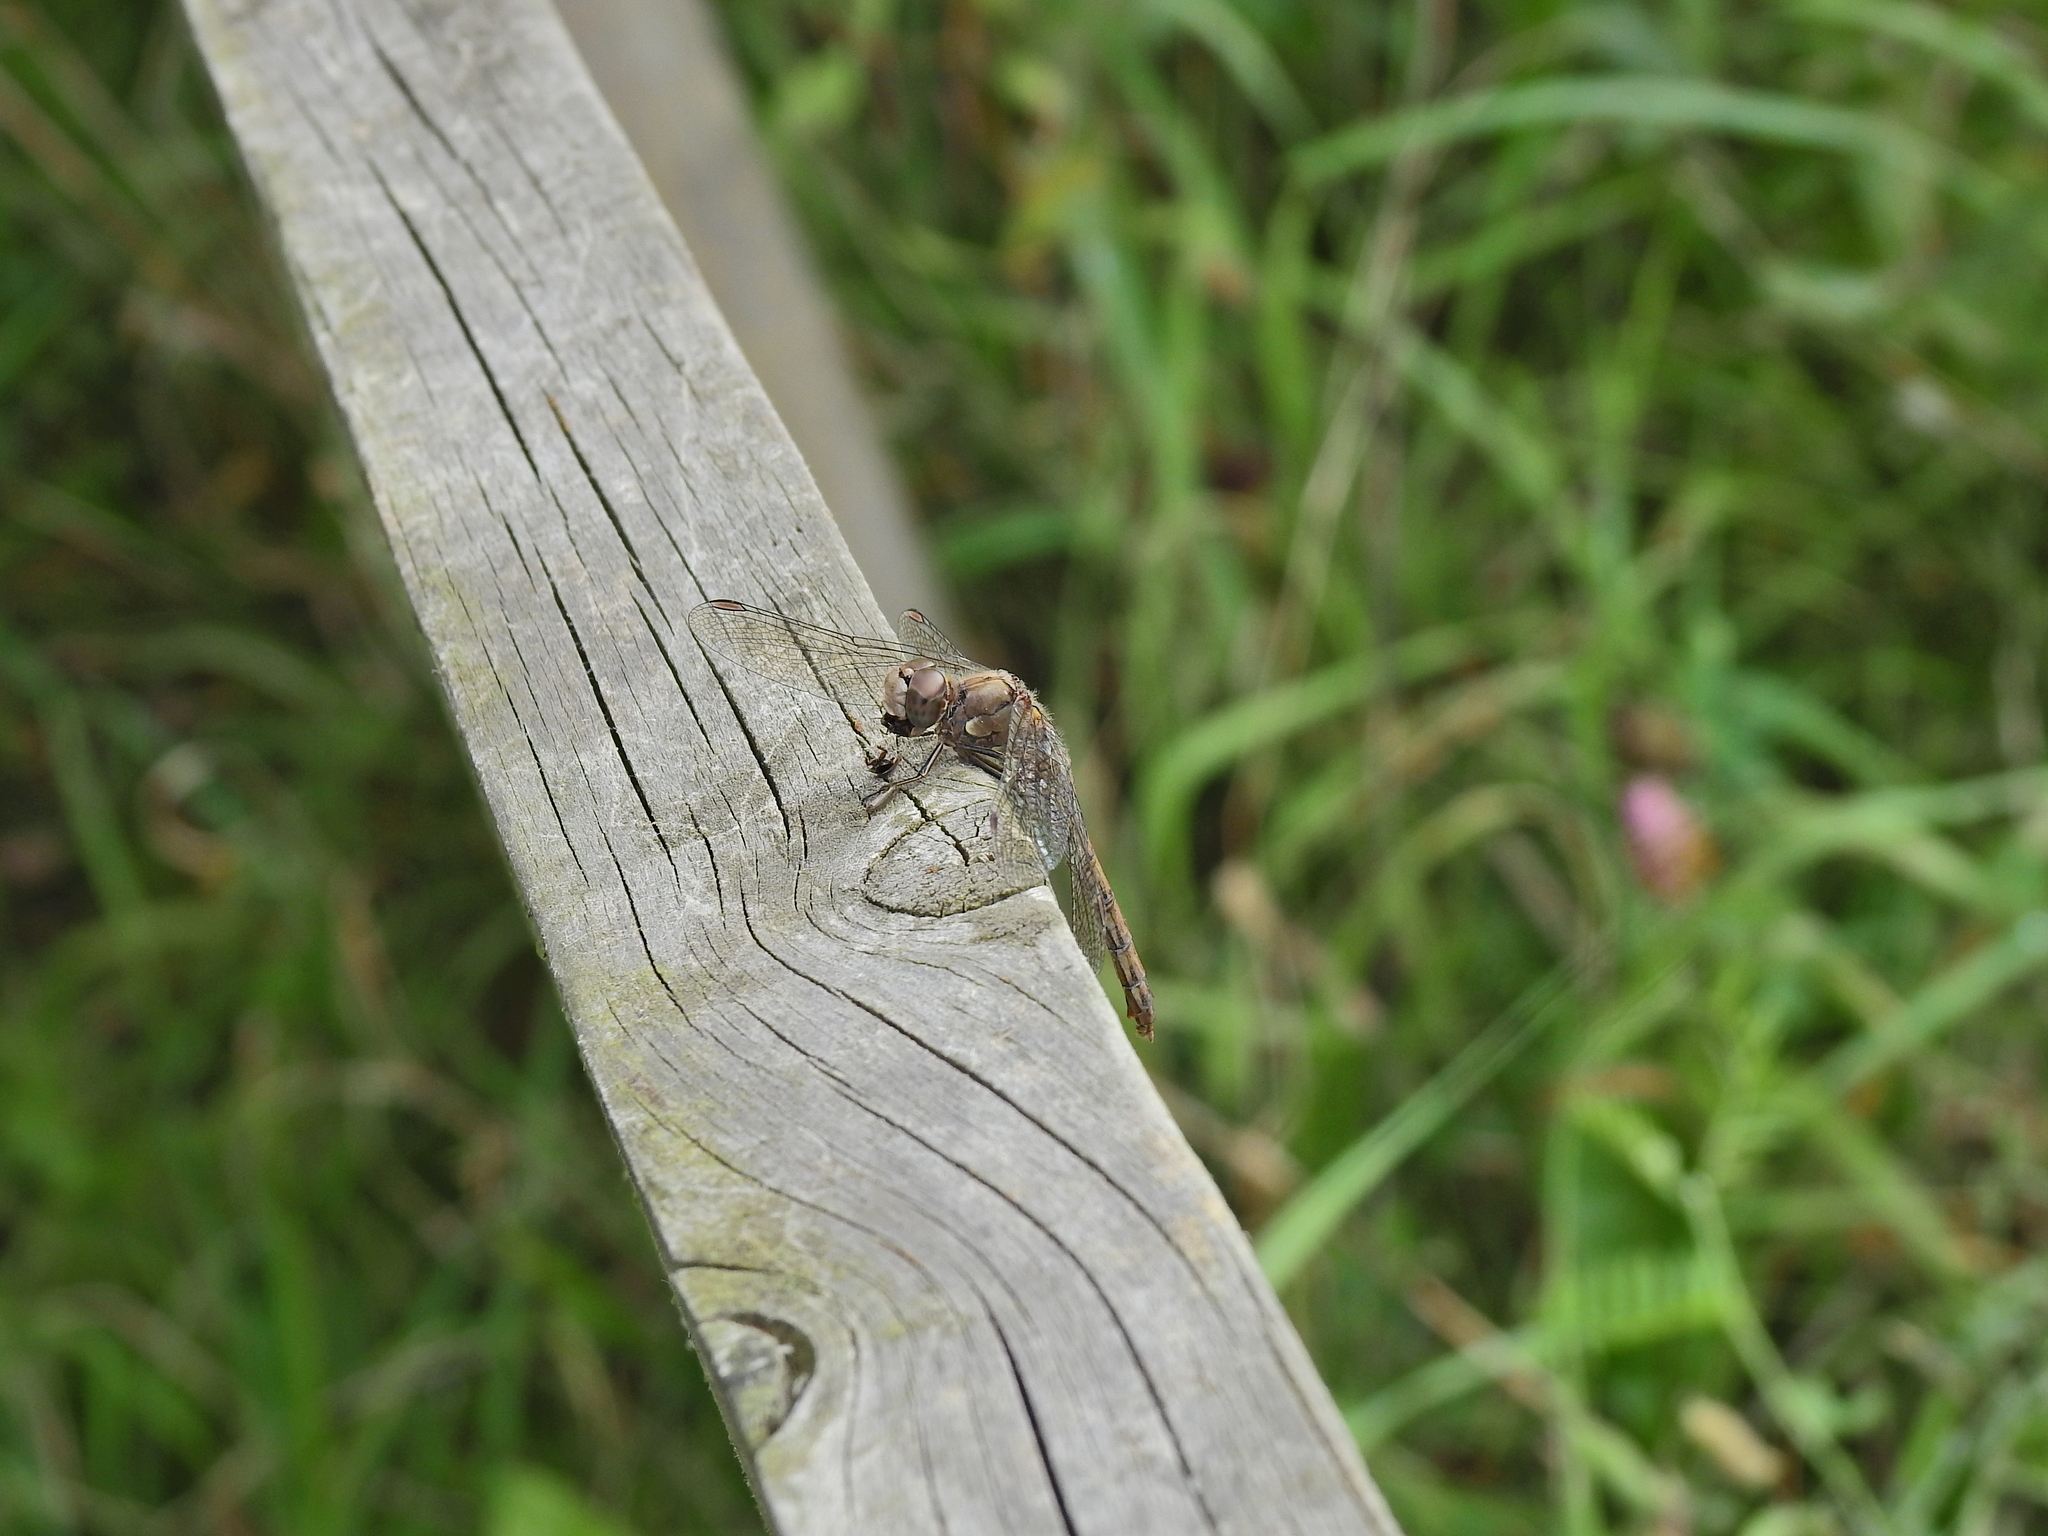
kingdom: Animalia
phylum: Arthropoda
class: Insecta
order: Odonata
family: Libellulidae
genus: Sympetrum
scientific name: Sympetrum striolatum
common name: Common darter
